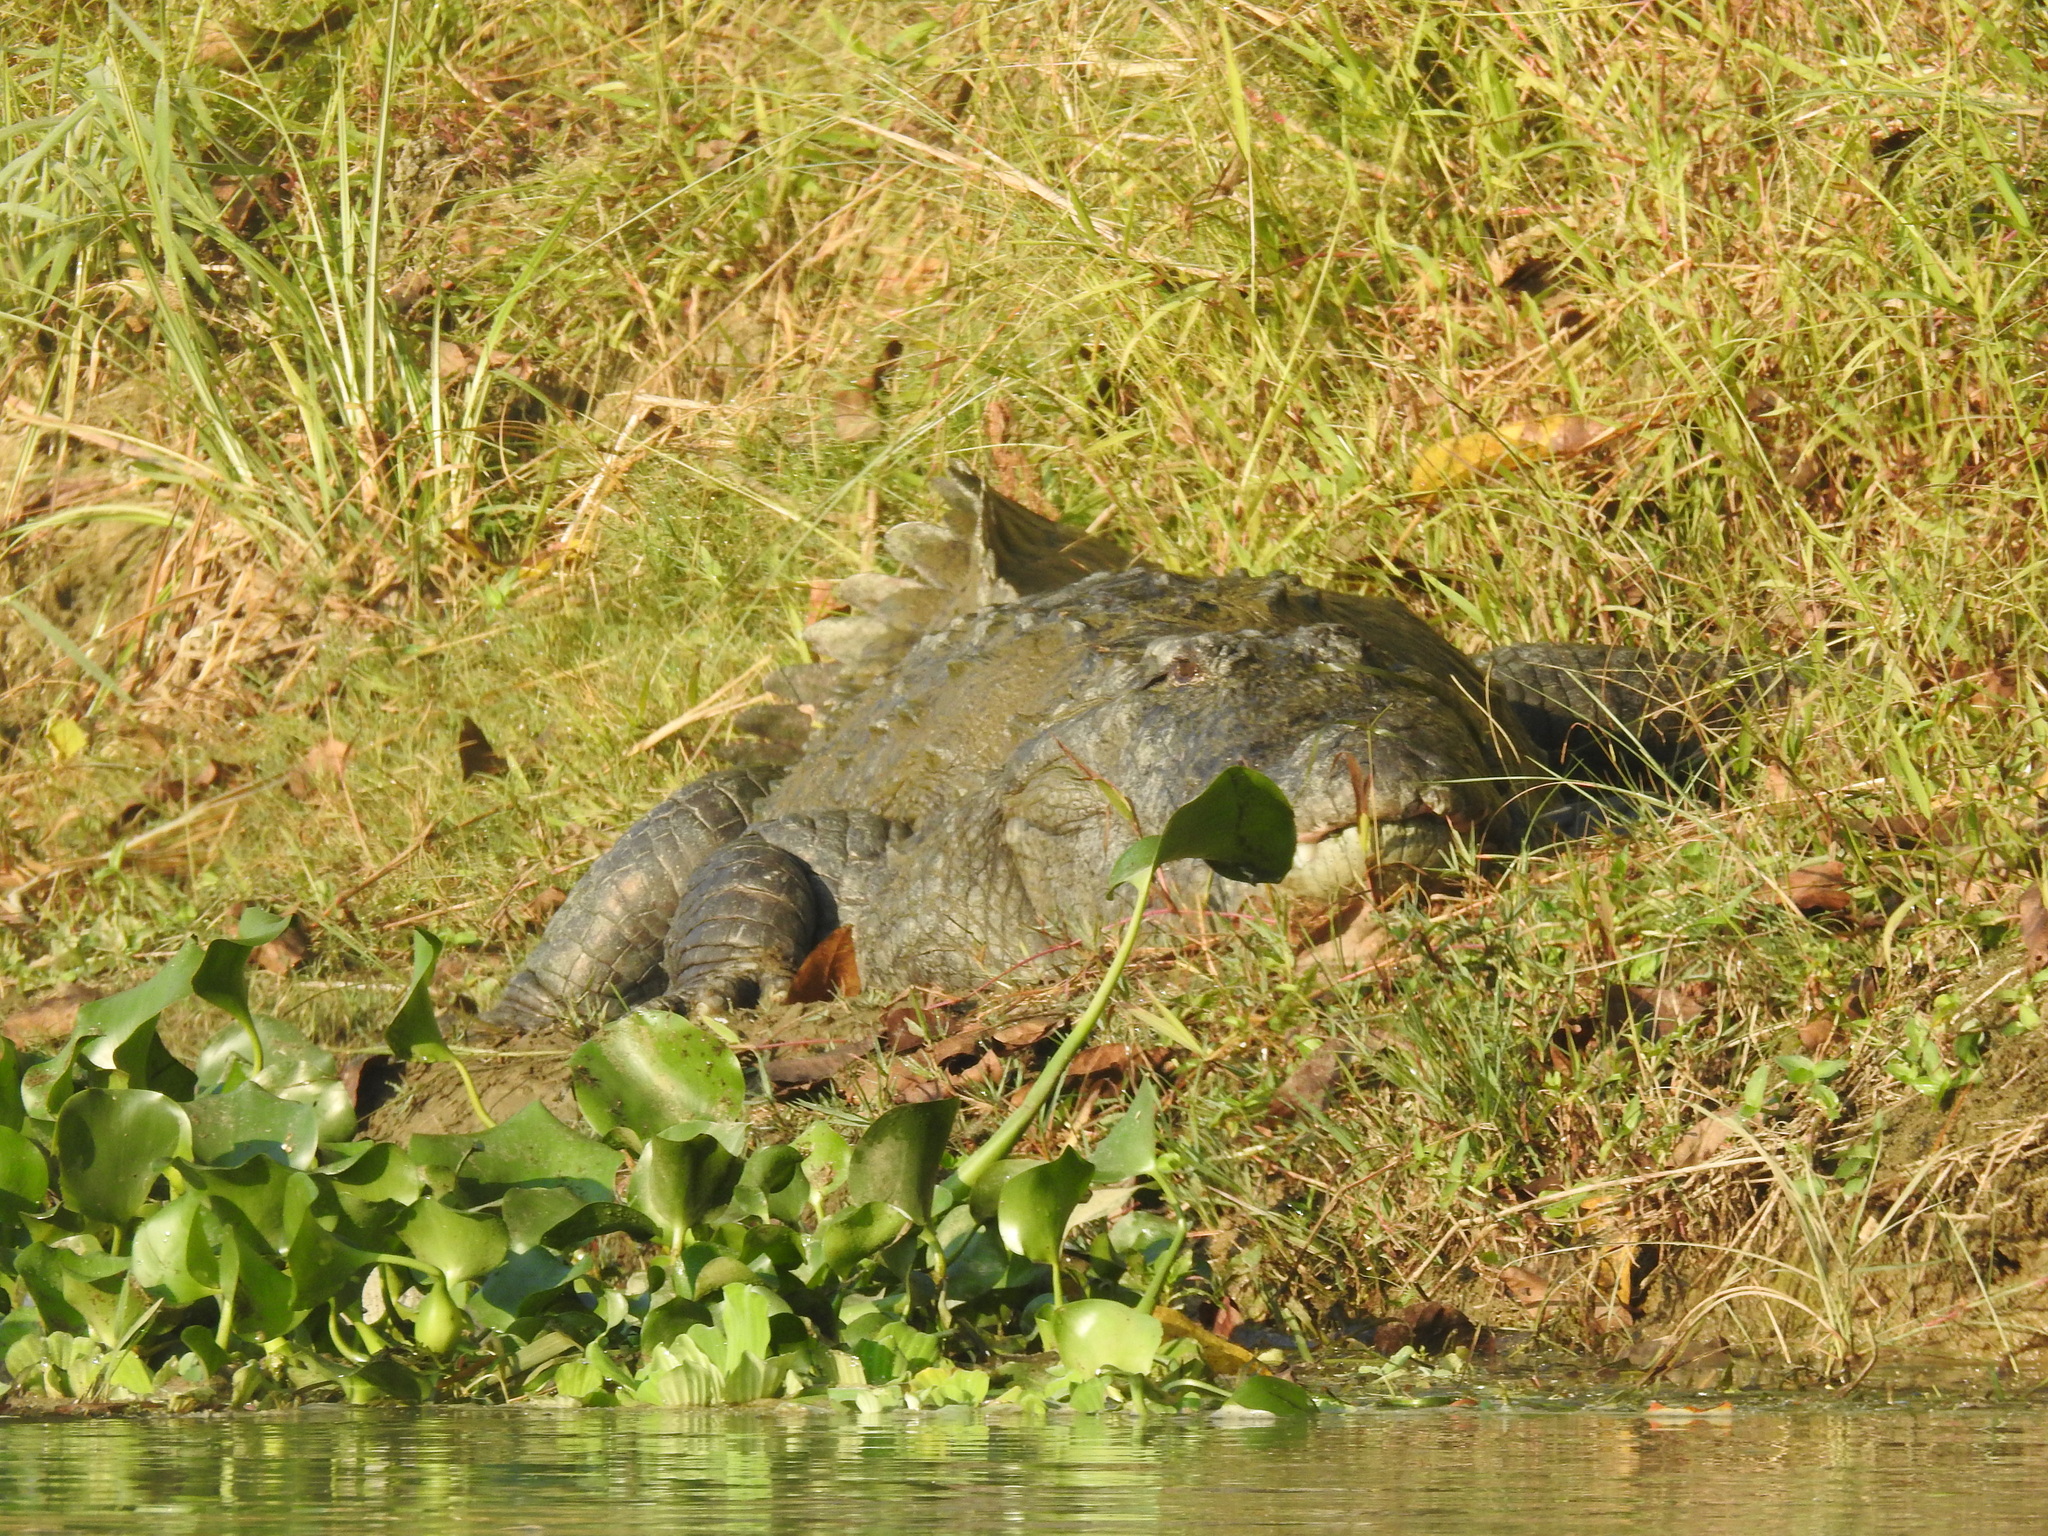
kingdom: Animalia
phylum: Chordata
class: Crocodylia
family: Crocodylidae
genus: Crocodylus
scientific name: Crocodylus palustris
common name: Mugger crocodile
